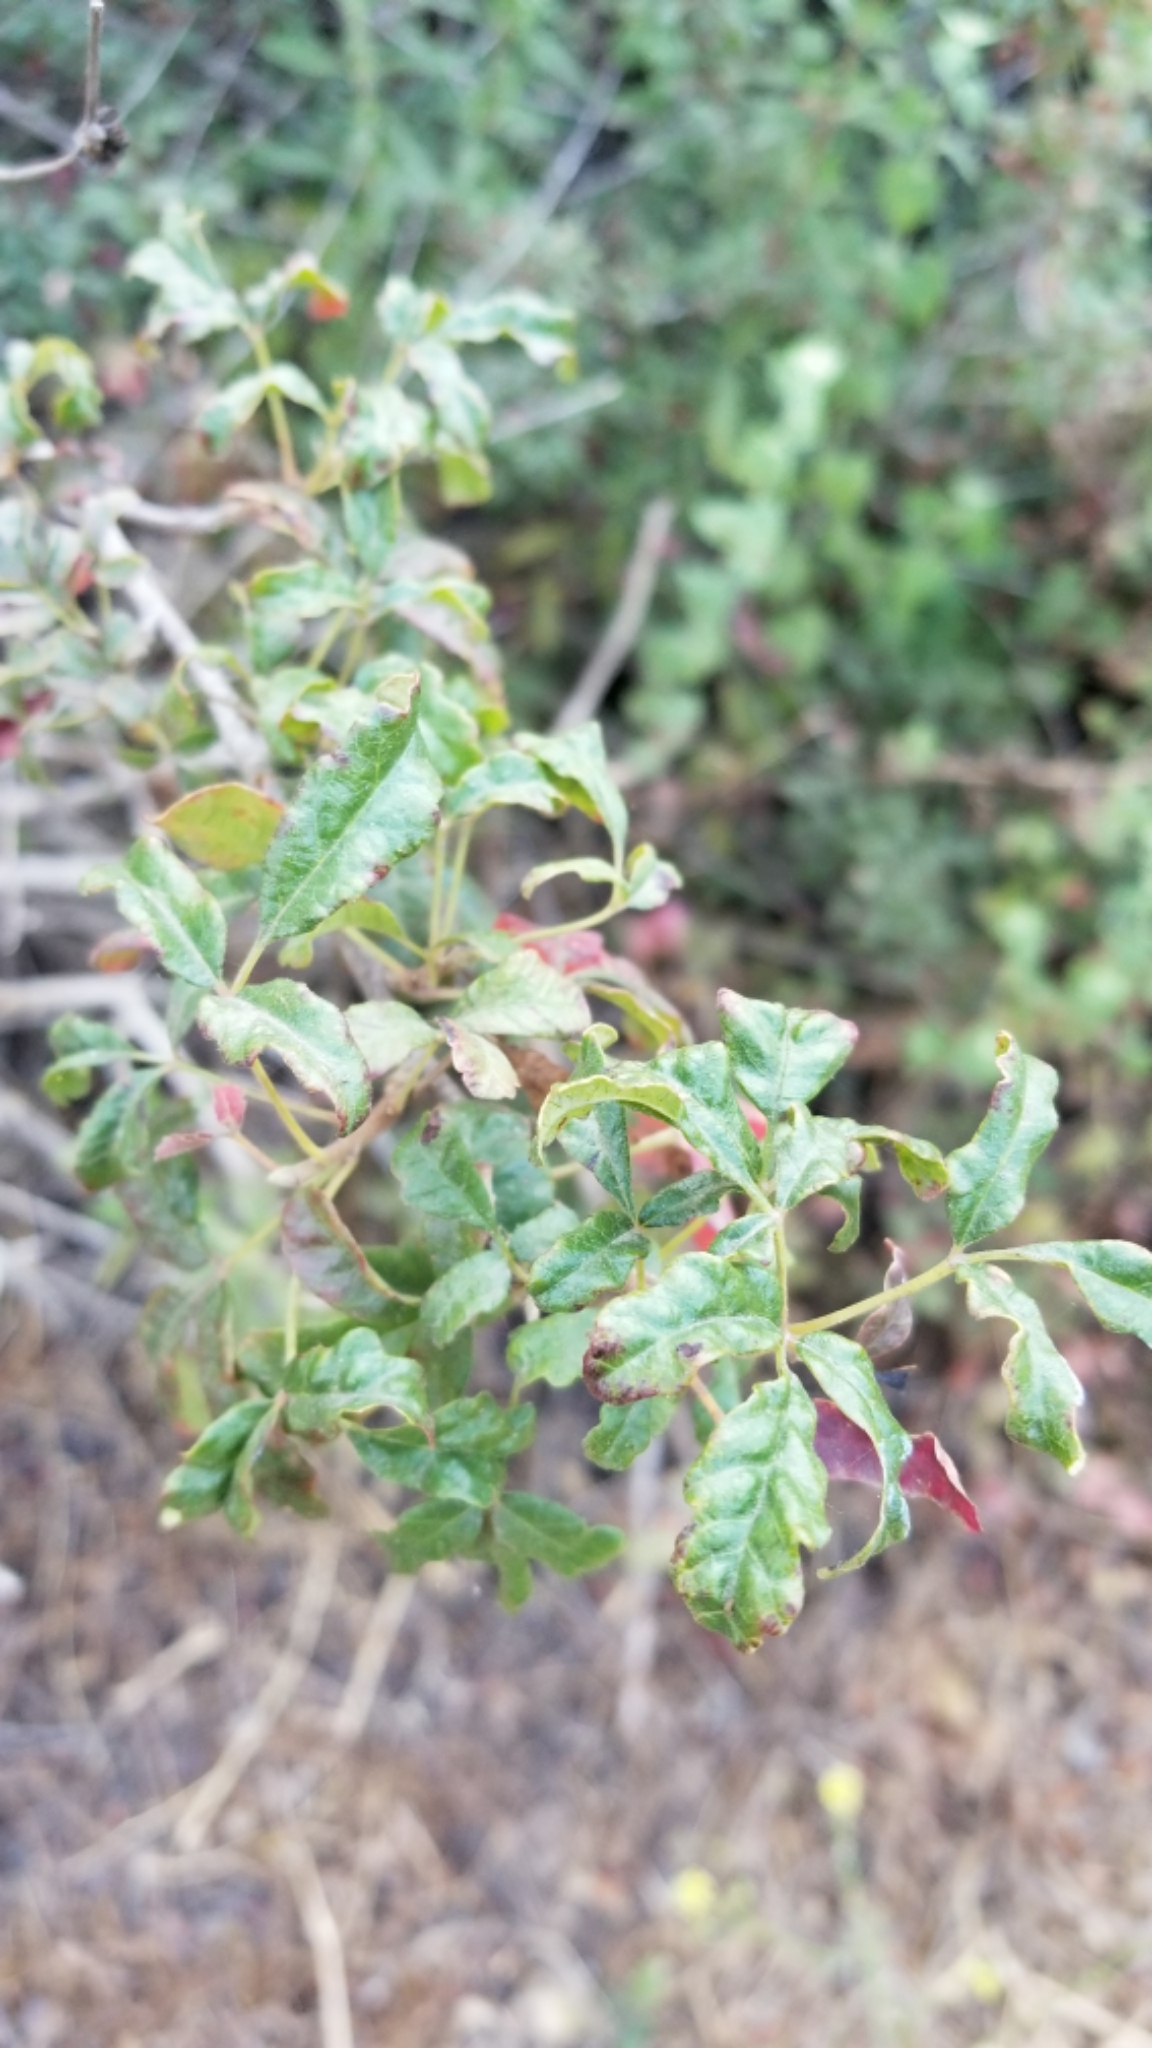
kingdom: Plantae
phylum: Tracheophyta
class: Magnoliopsida
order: Sapindales
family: Anacardiaceae
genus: Toxicodendron
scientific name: Toxicodendron diversilobum
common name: Pacific poison-oak
